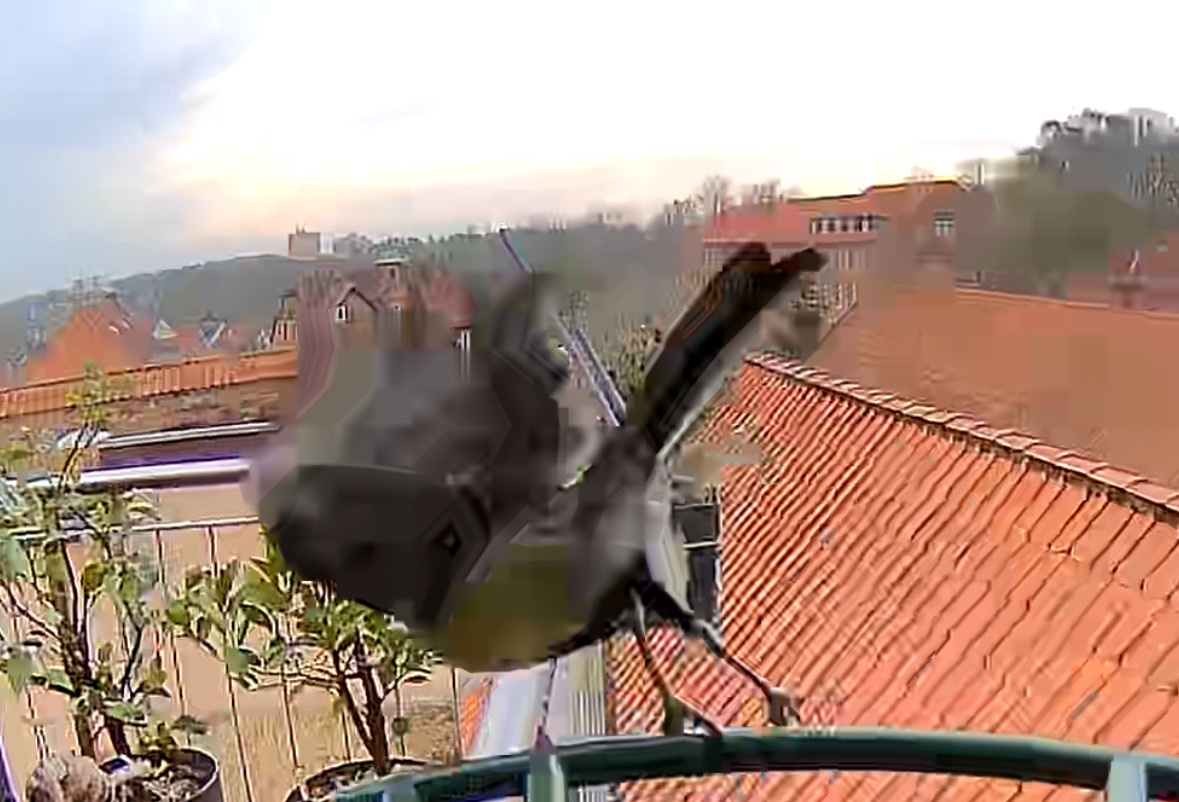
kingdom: Animalia
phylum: Chordata
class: Aves
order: Passeriformes
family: Paridae
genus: Parus
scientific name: Parus major
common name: Great tit
